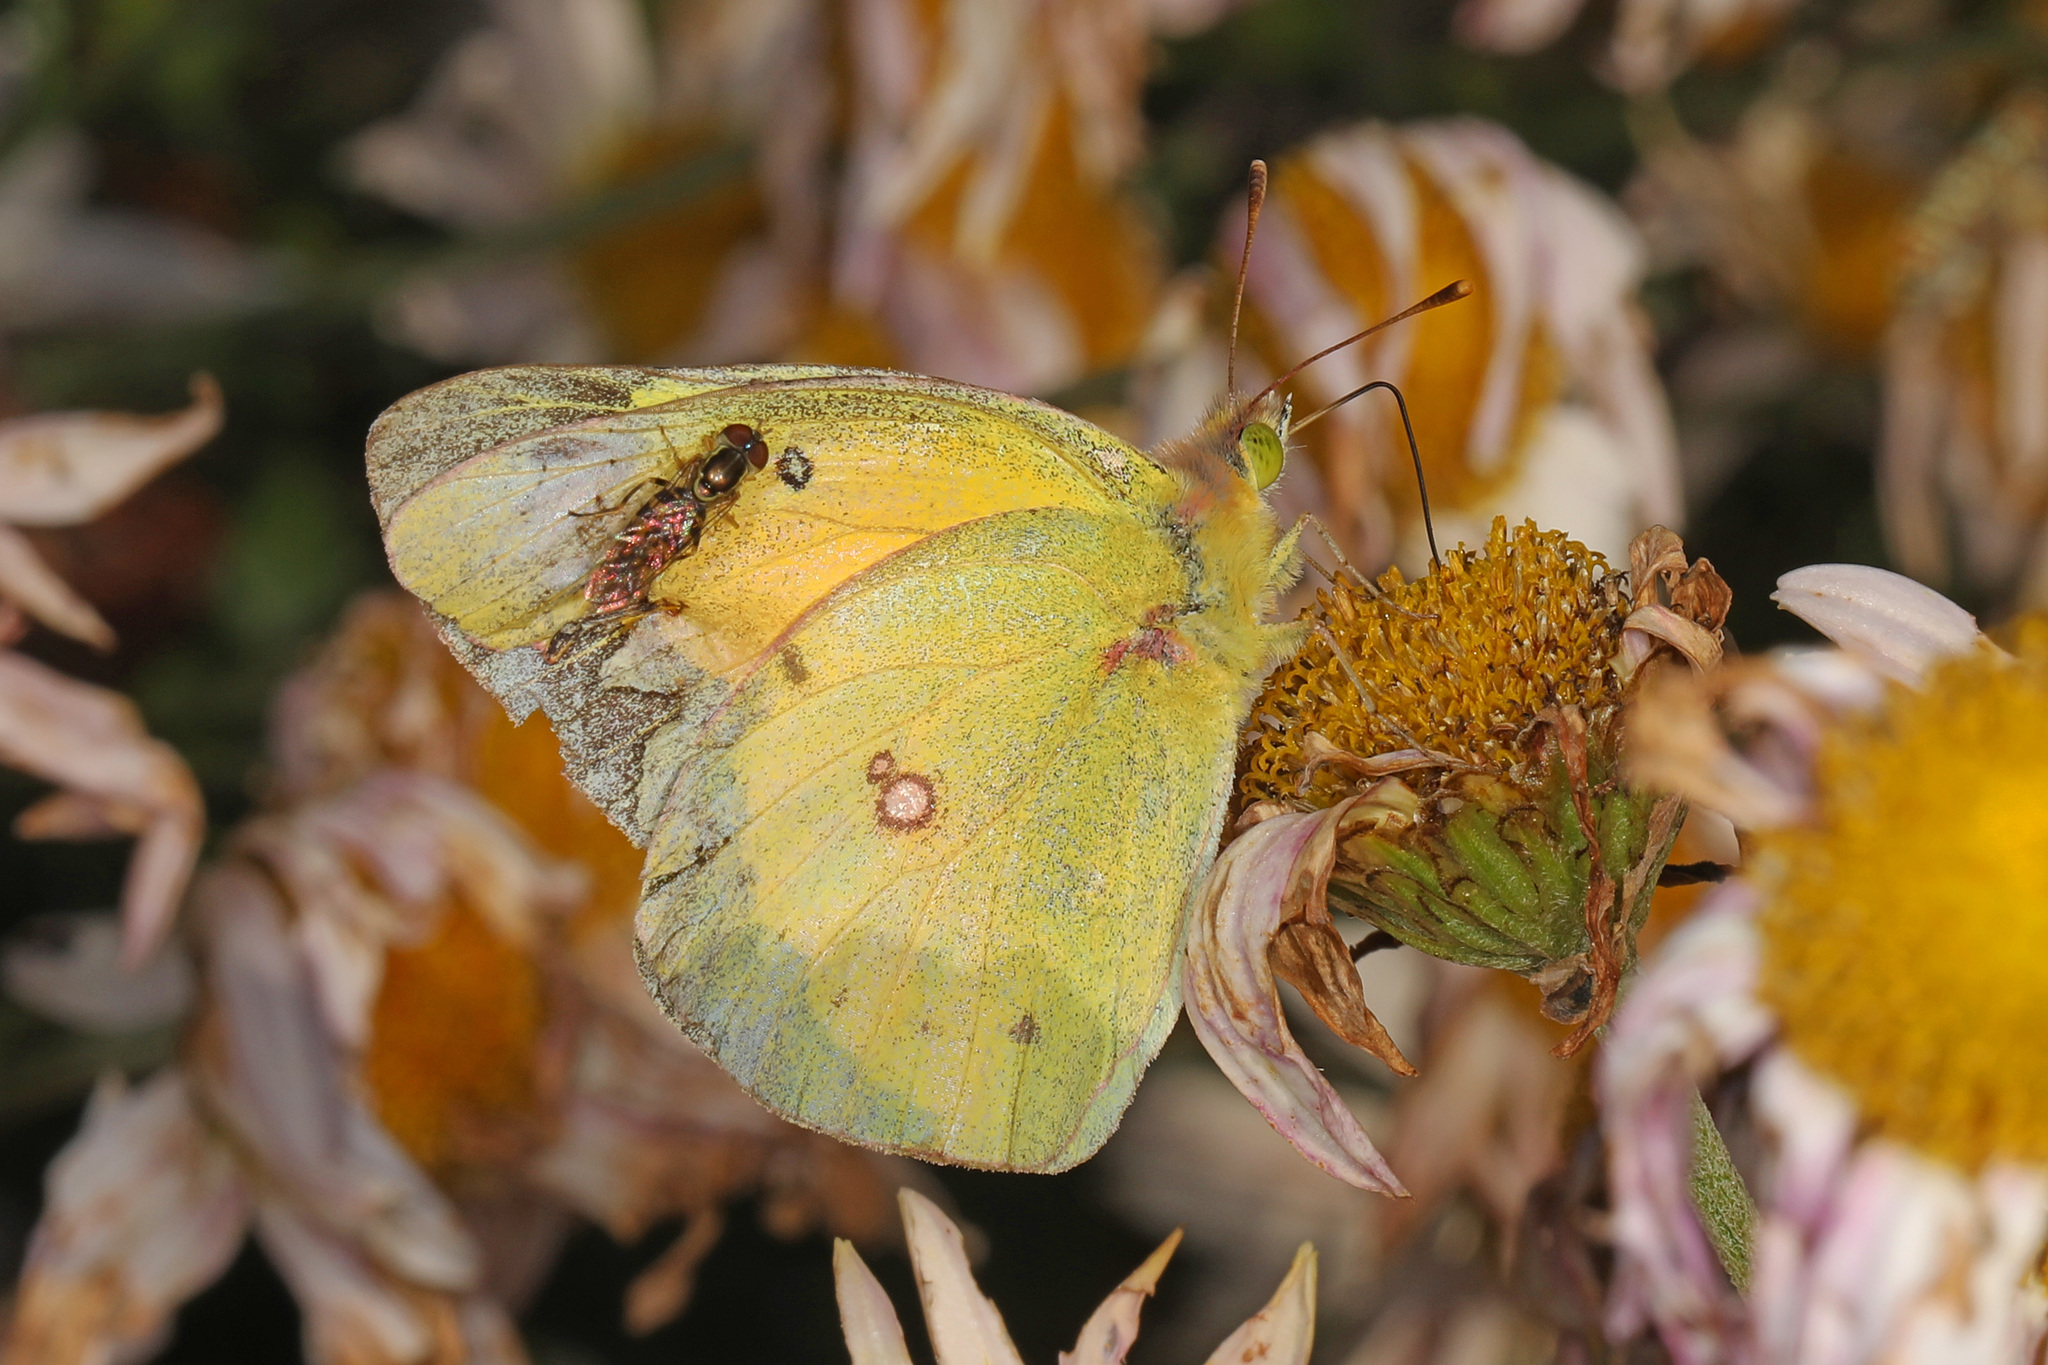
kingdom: Animalia
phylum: Arthropoda
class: Insecta
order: Lepidoptera
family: Pieridae
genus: Colias
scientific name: Colias eurytheme
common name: Alfalfa butterfly
